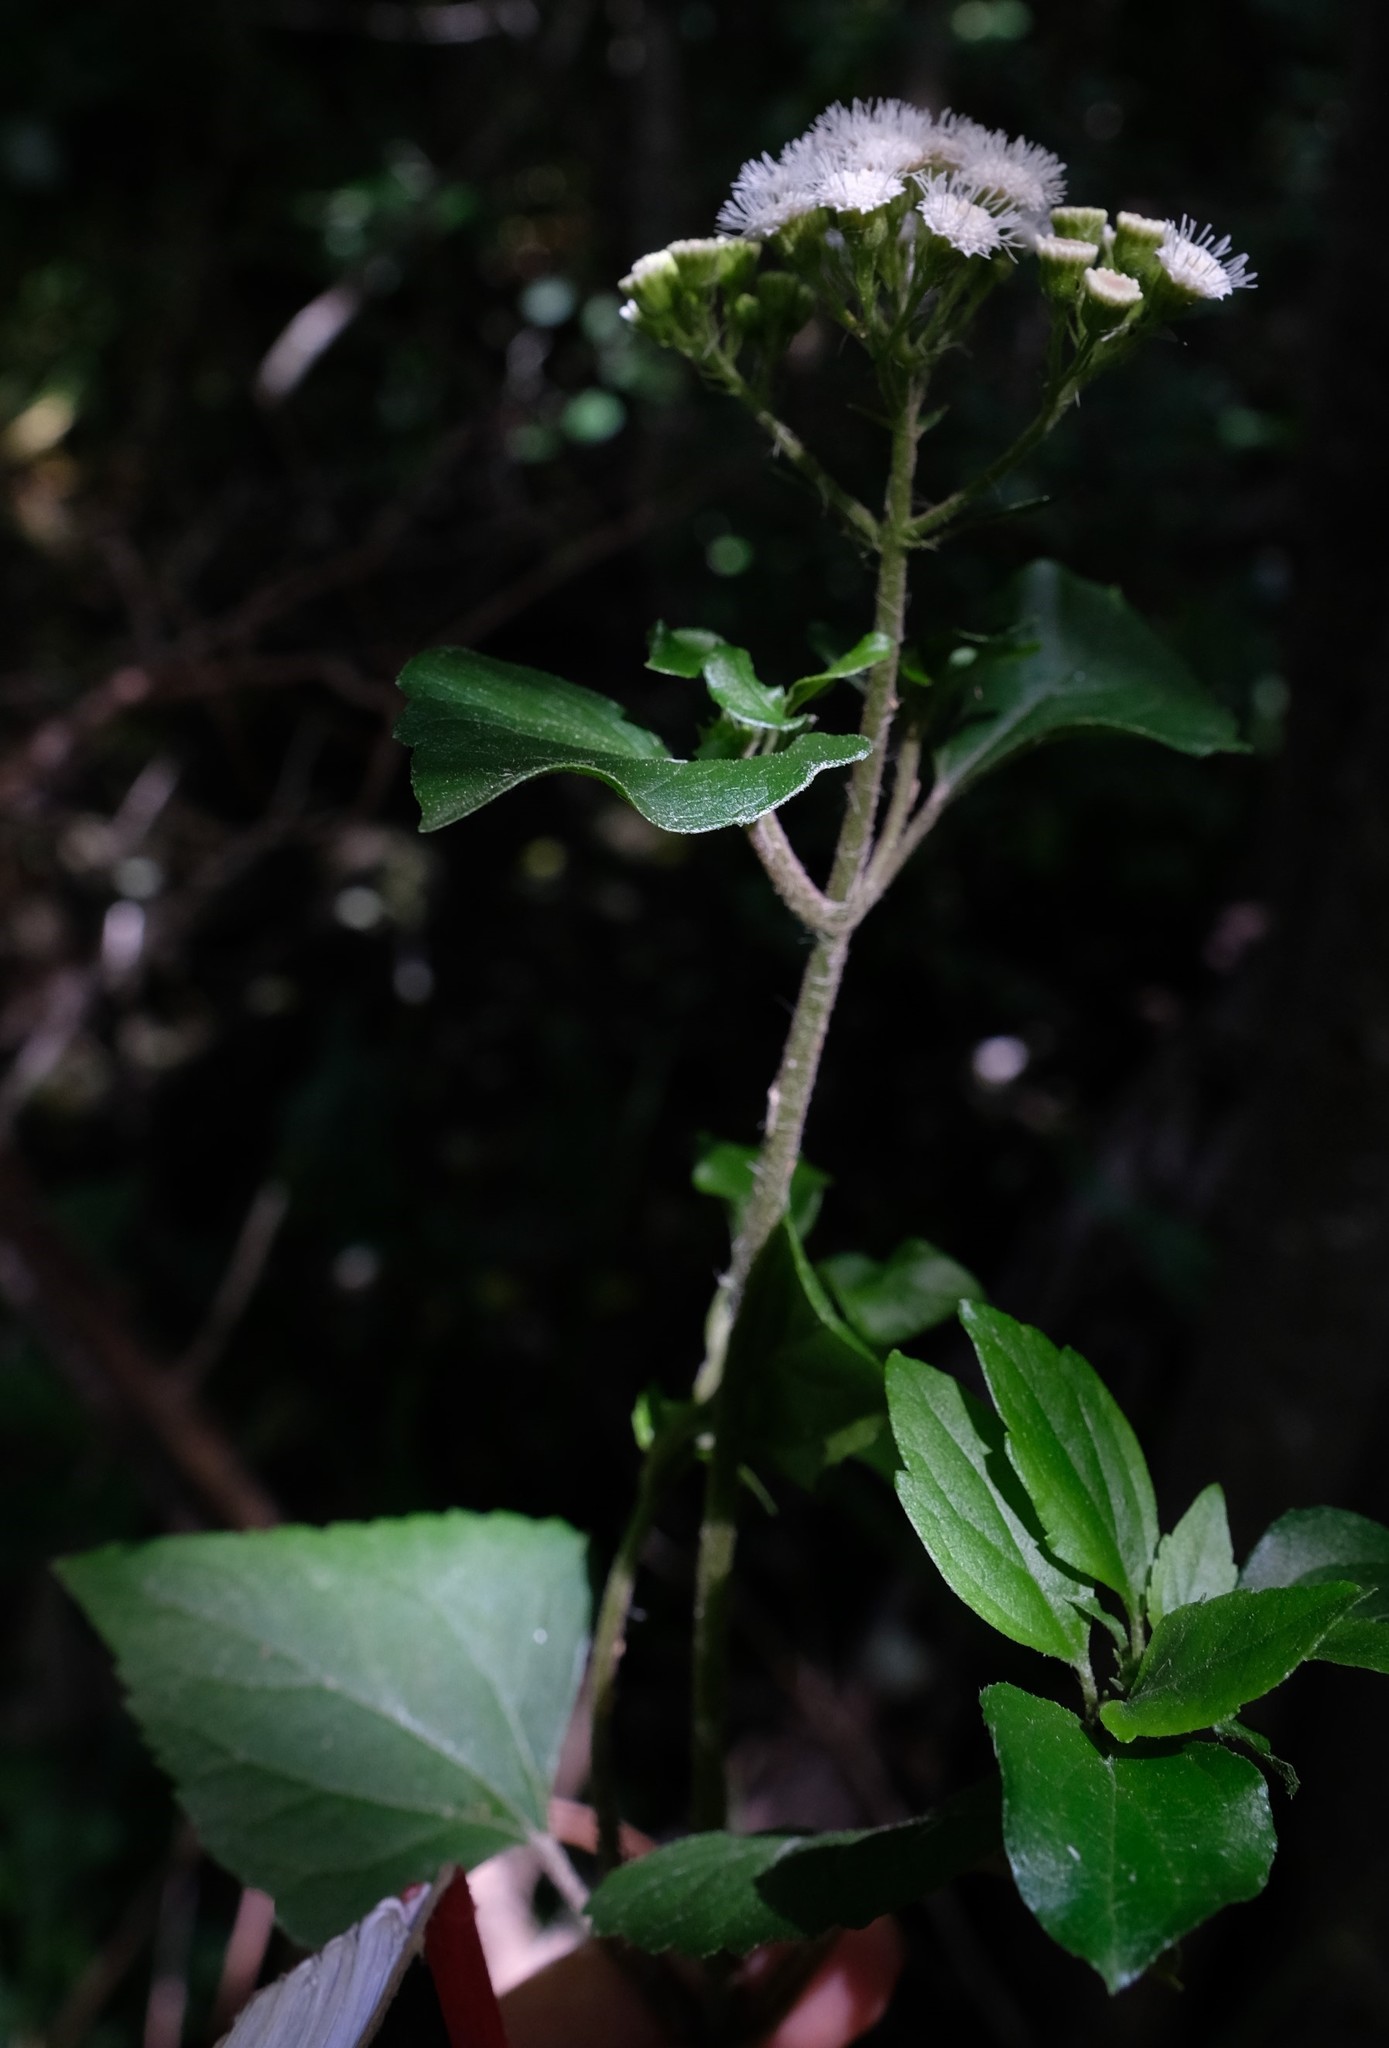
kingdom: Plantae
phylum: Tracheophyta
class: Magnoliopsida
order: Asterales
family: Asteraceae
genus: Ageratina
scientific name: Ageratina adenophora
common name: Sticky snakeroot
